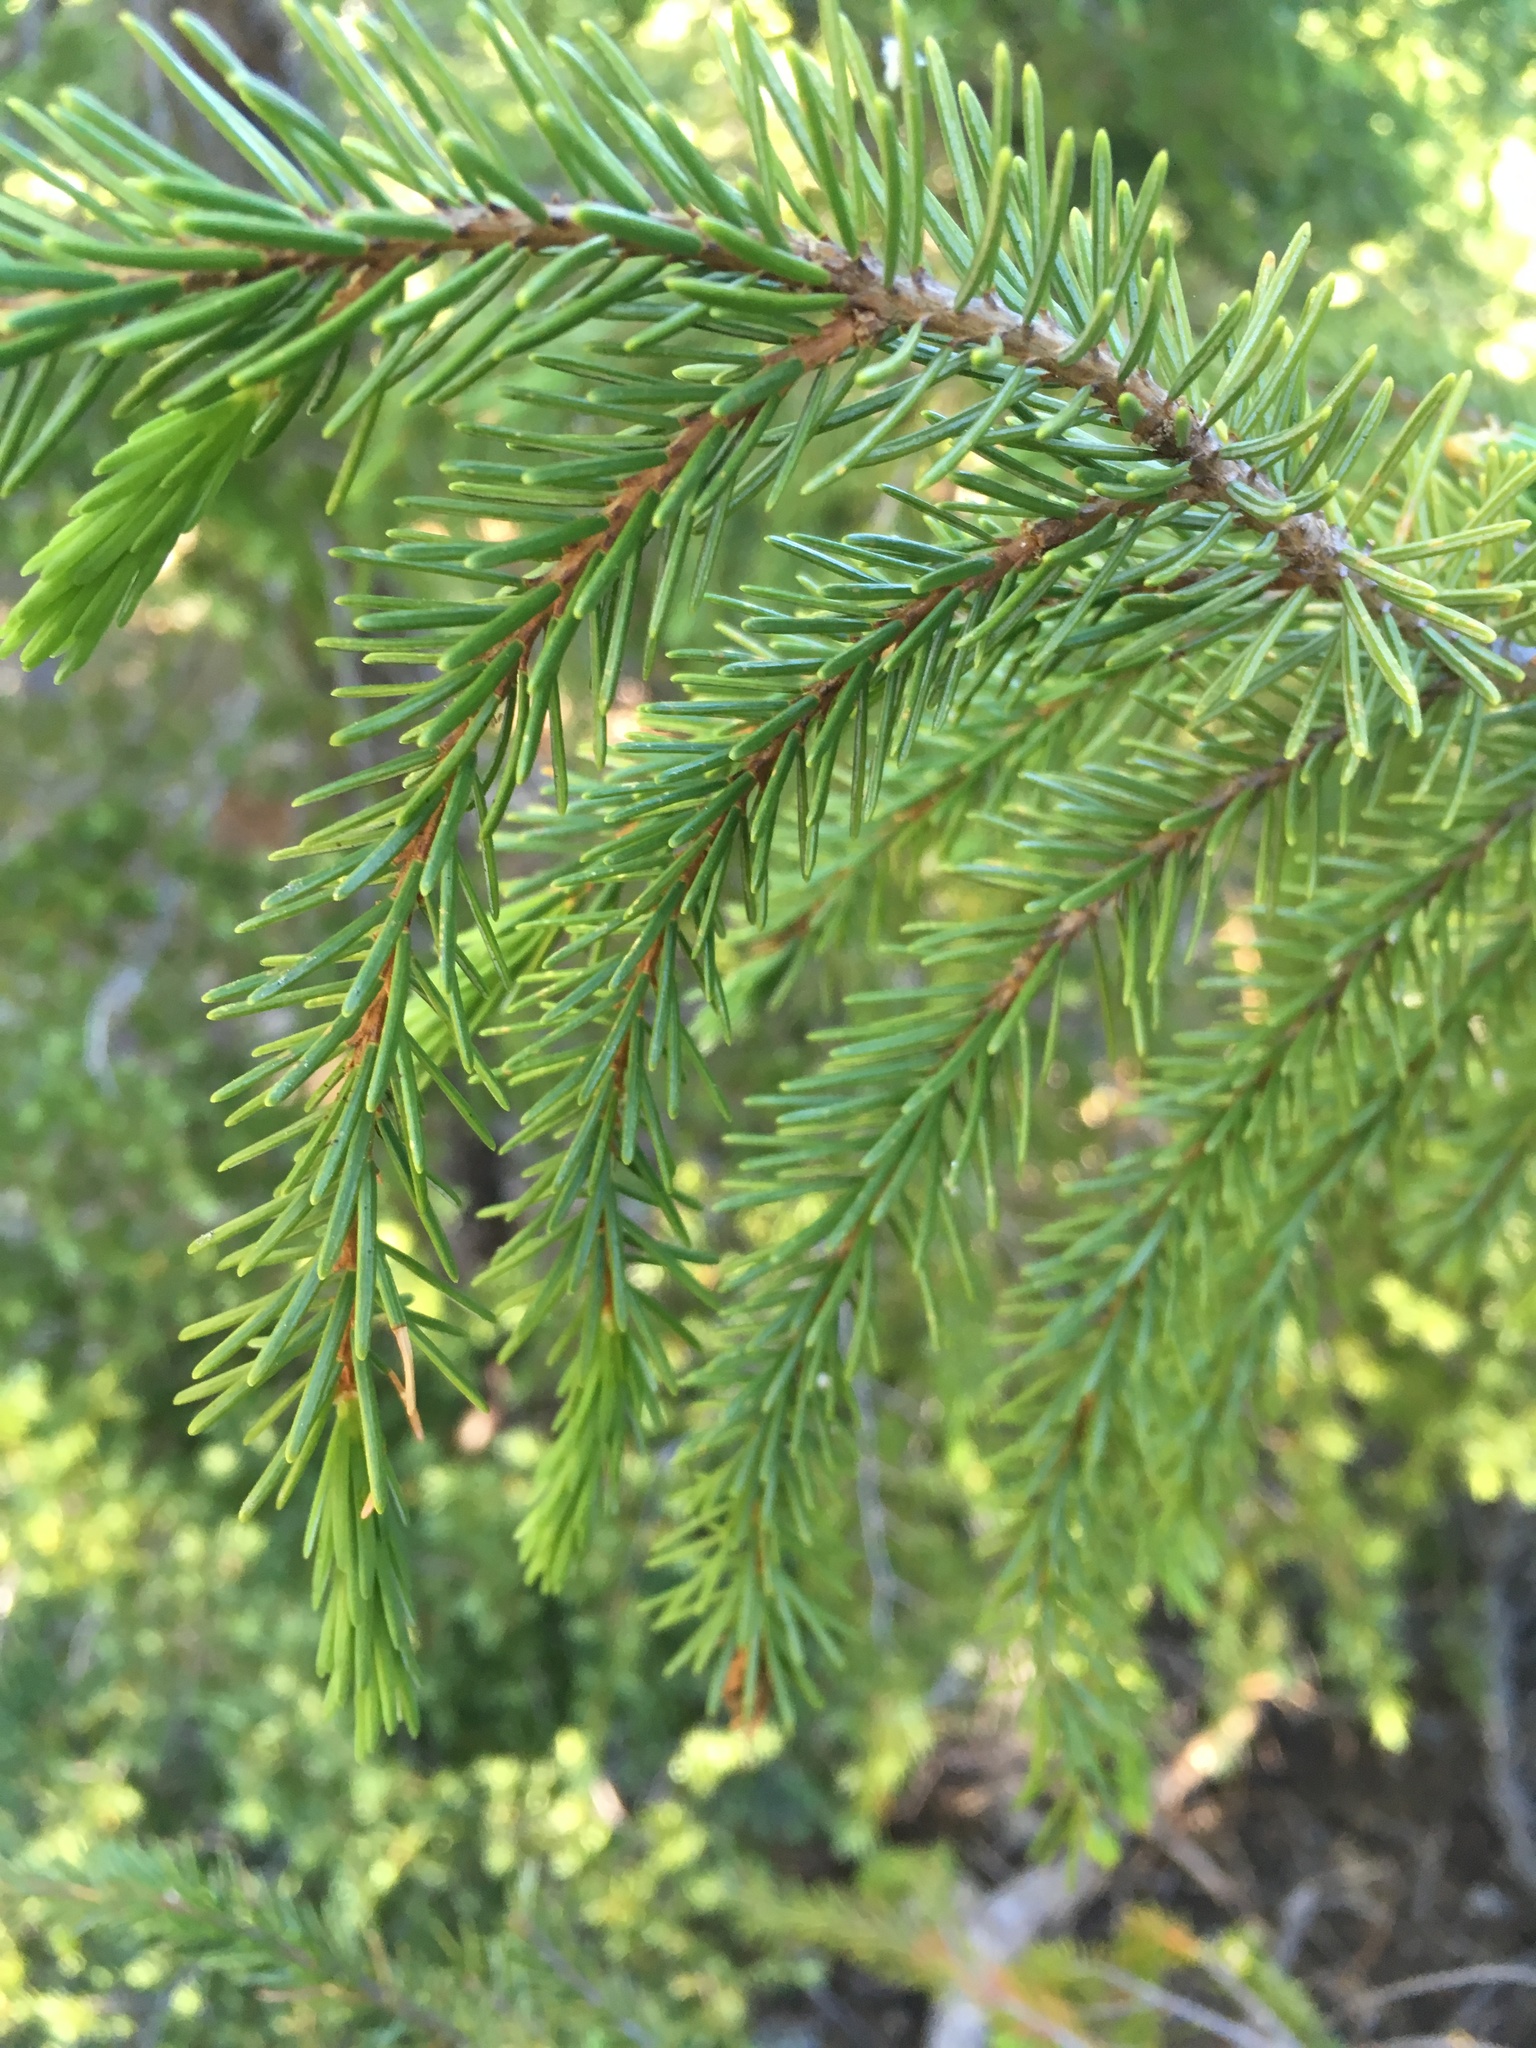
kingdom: Plantae
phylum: Tracheophyta
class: Pinopsida
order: Pinales
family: Pinaceae
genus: Picea
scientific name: Picea breweriana
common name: Brewer's spruce
